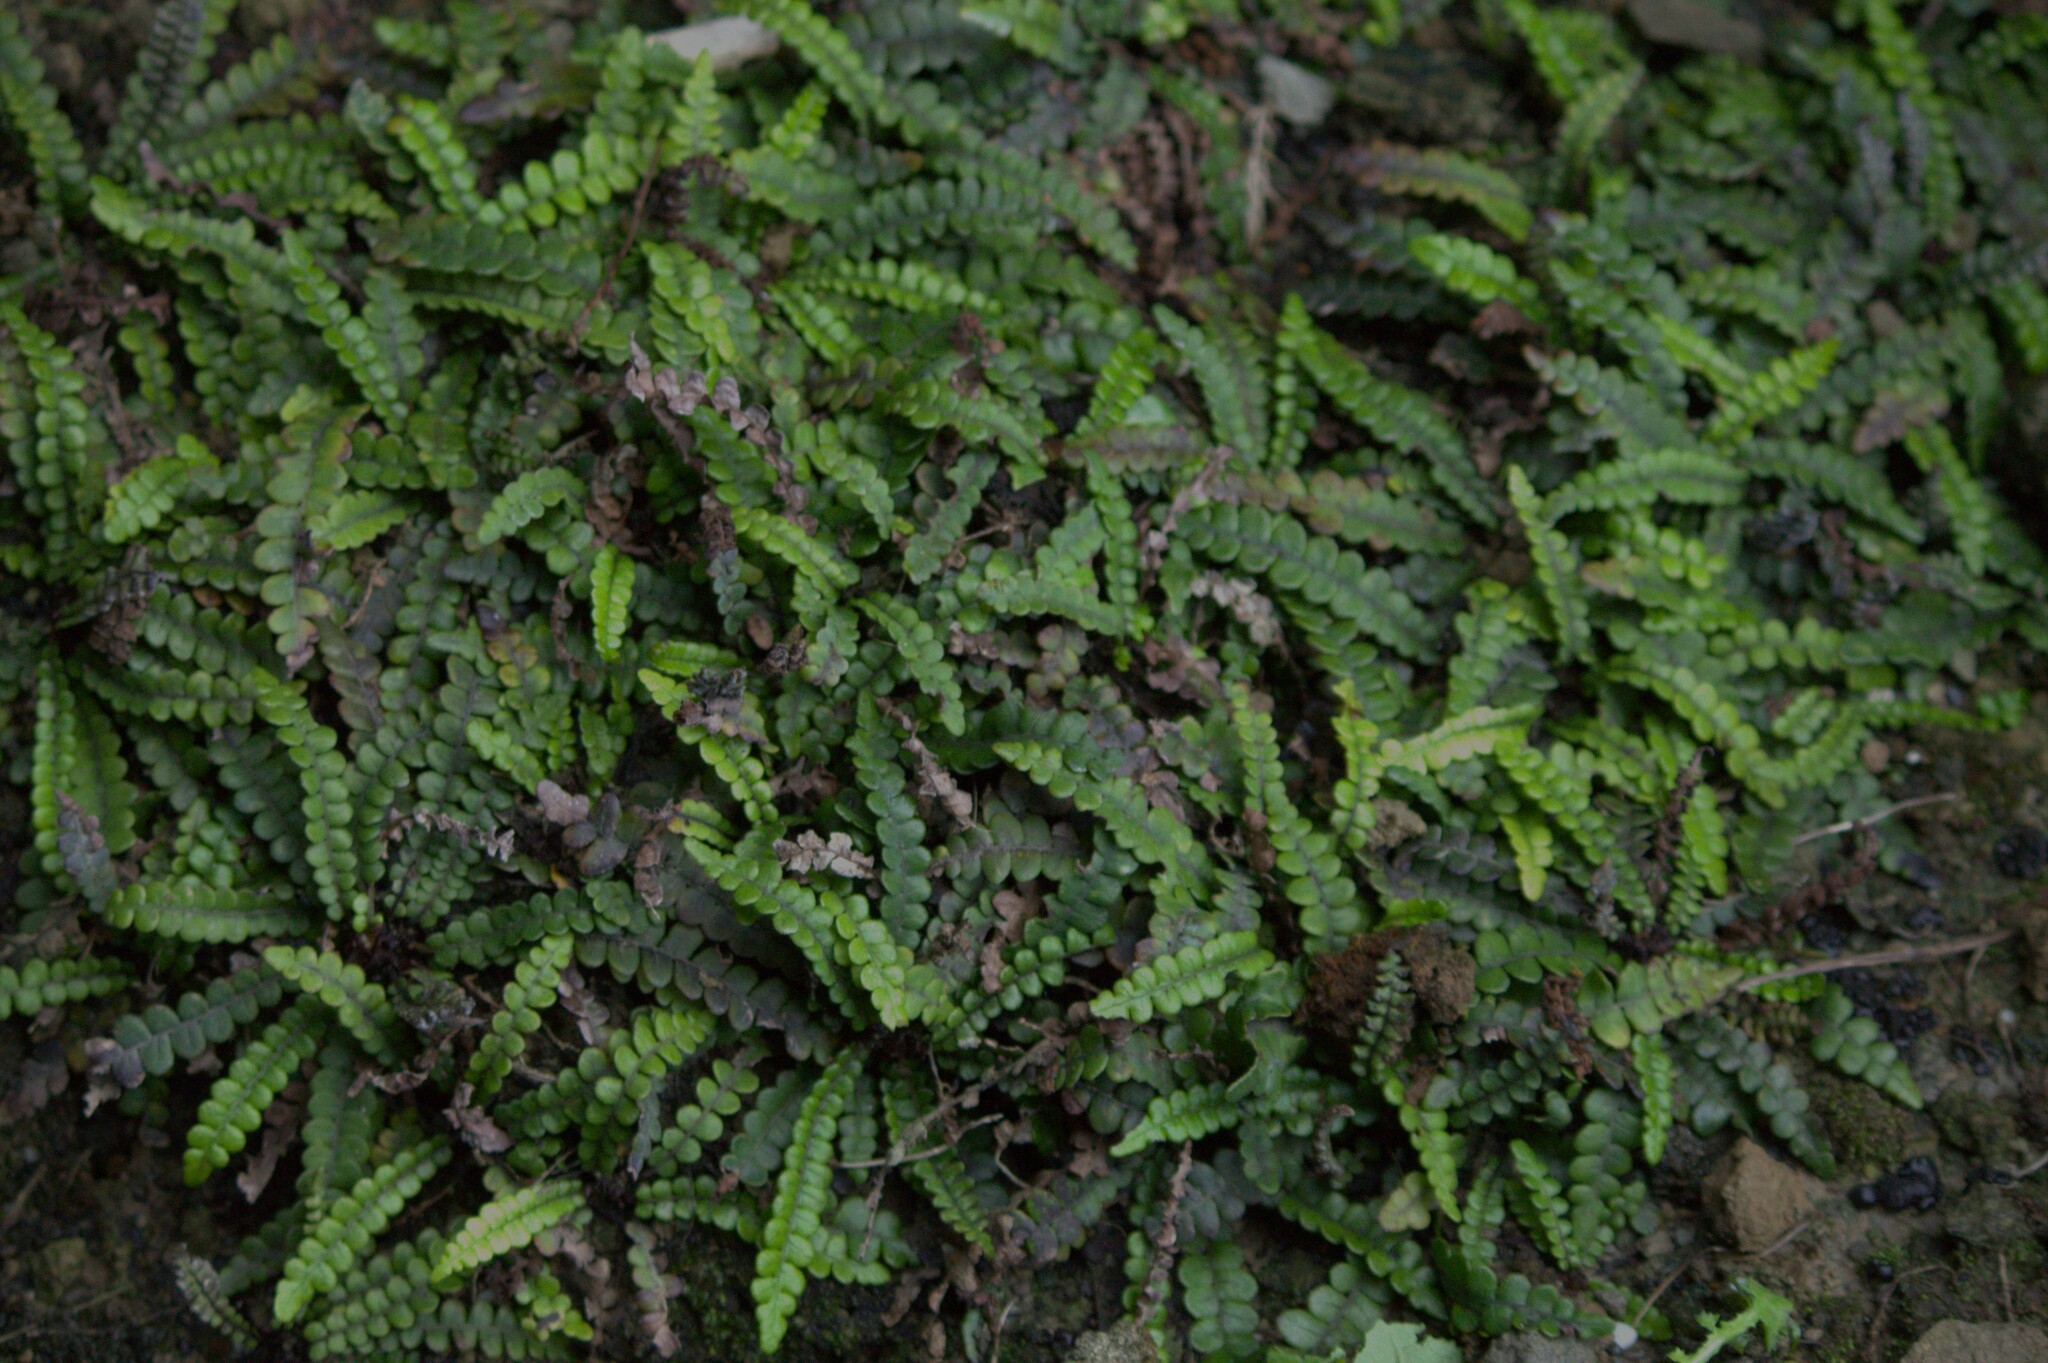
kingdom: Plantae
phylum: Tracheophyta
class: Polypodiopsida
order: Polypodiales
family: Blechnaceae
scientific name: Blechnaceae
